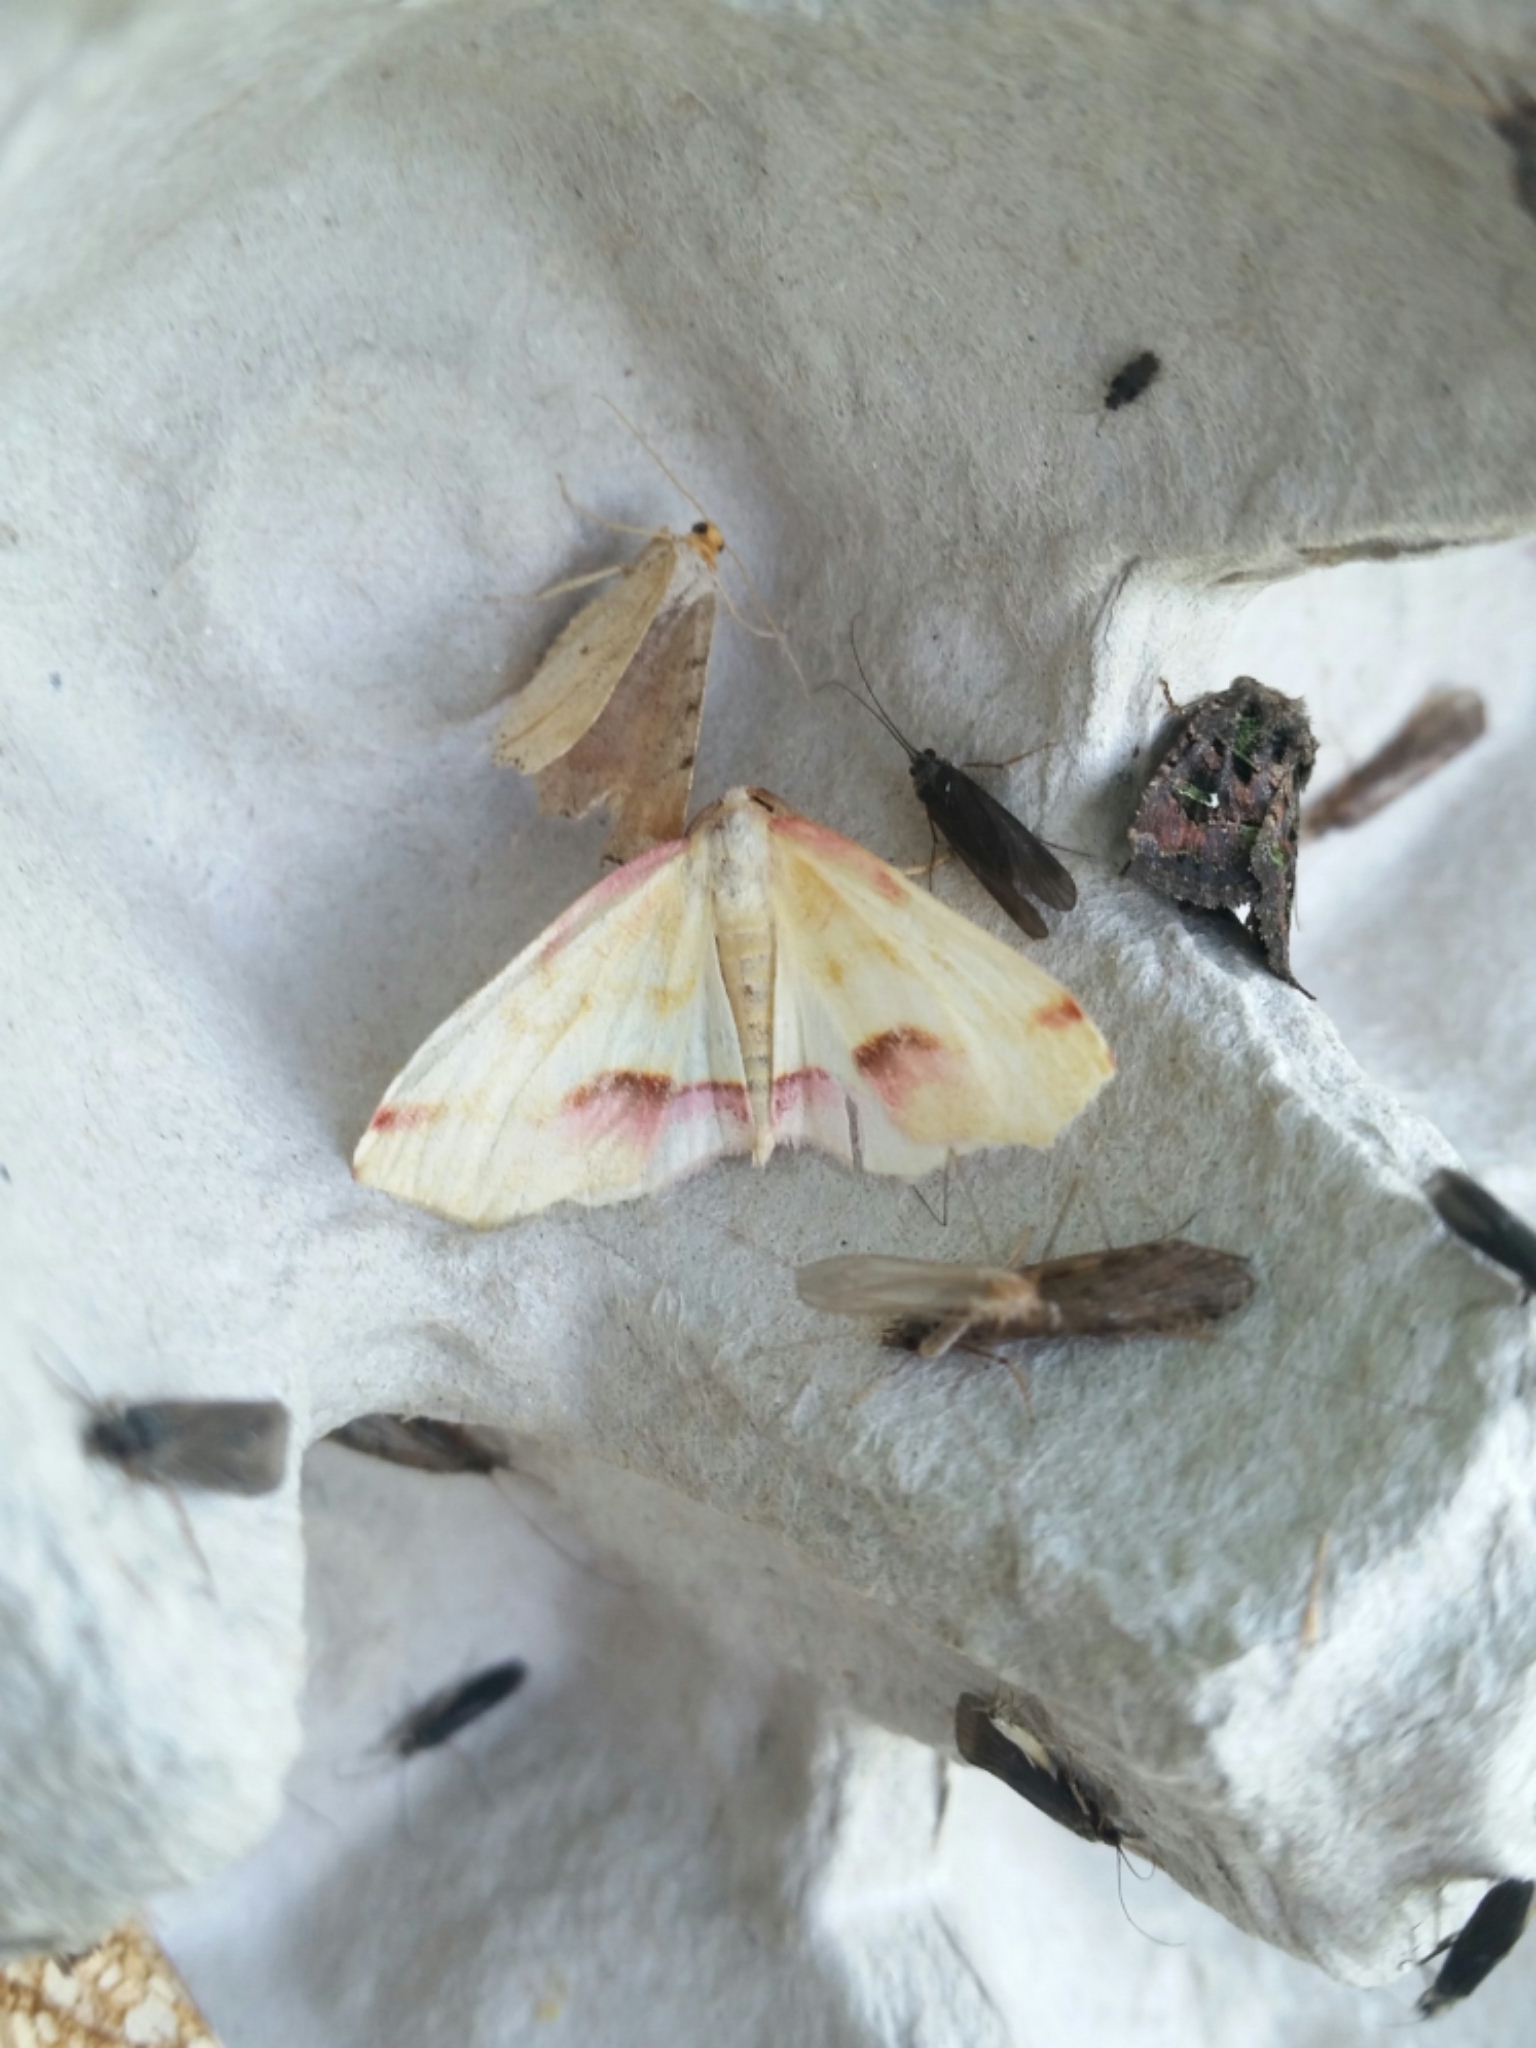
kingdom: Animalia
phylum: Arthropoda
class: Insecta
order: Lepidoptera
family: Geometridae
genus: Plagodis
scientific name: Plagodis serinaria
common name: Lemon plagodis
